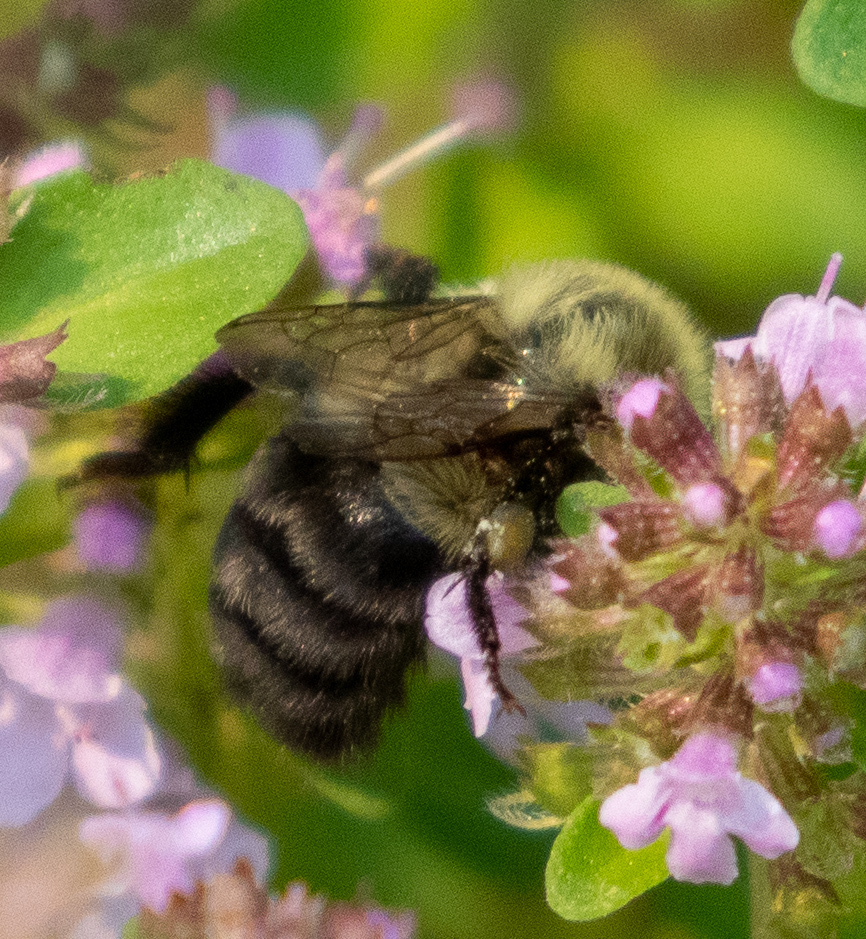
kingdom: Animalia
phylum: Arthropoda
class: Insecta
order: Hymenoptera
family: Apidae
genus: Bombus
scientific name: Bombus impatiens
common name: Common eastern bumble bee
